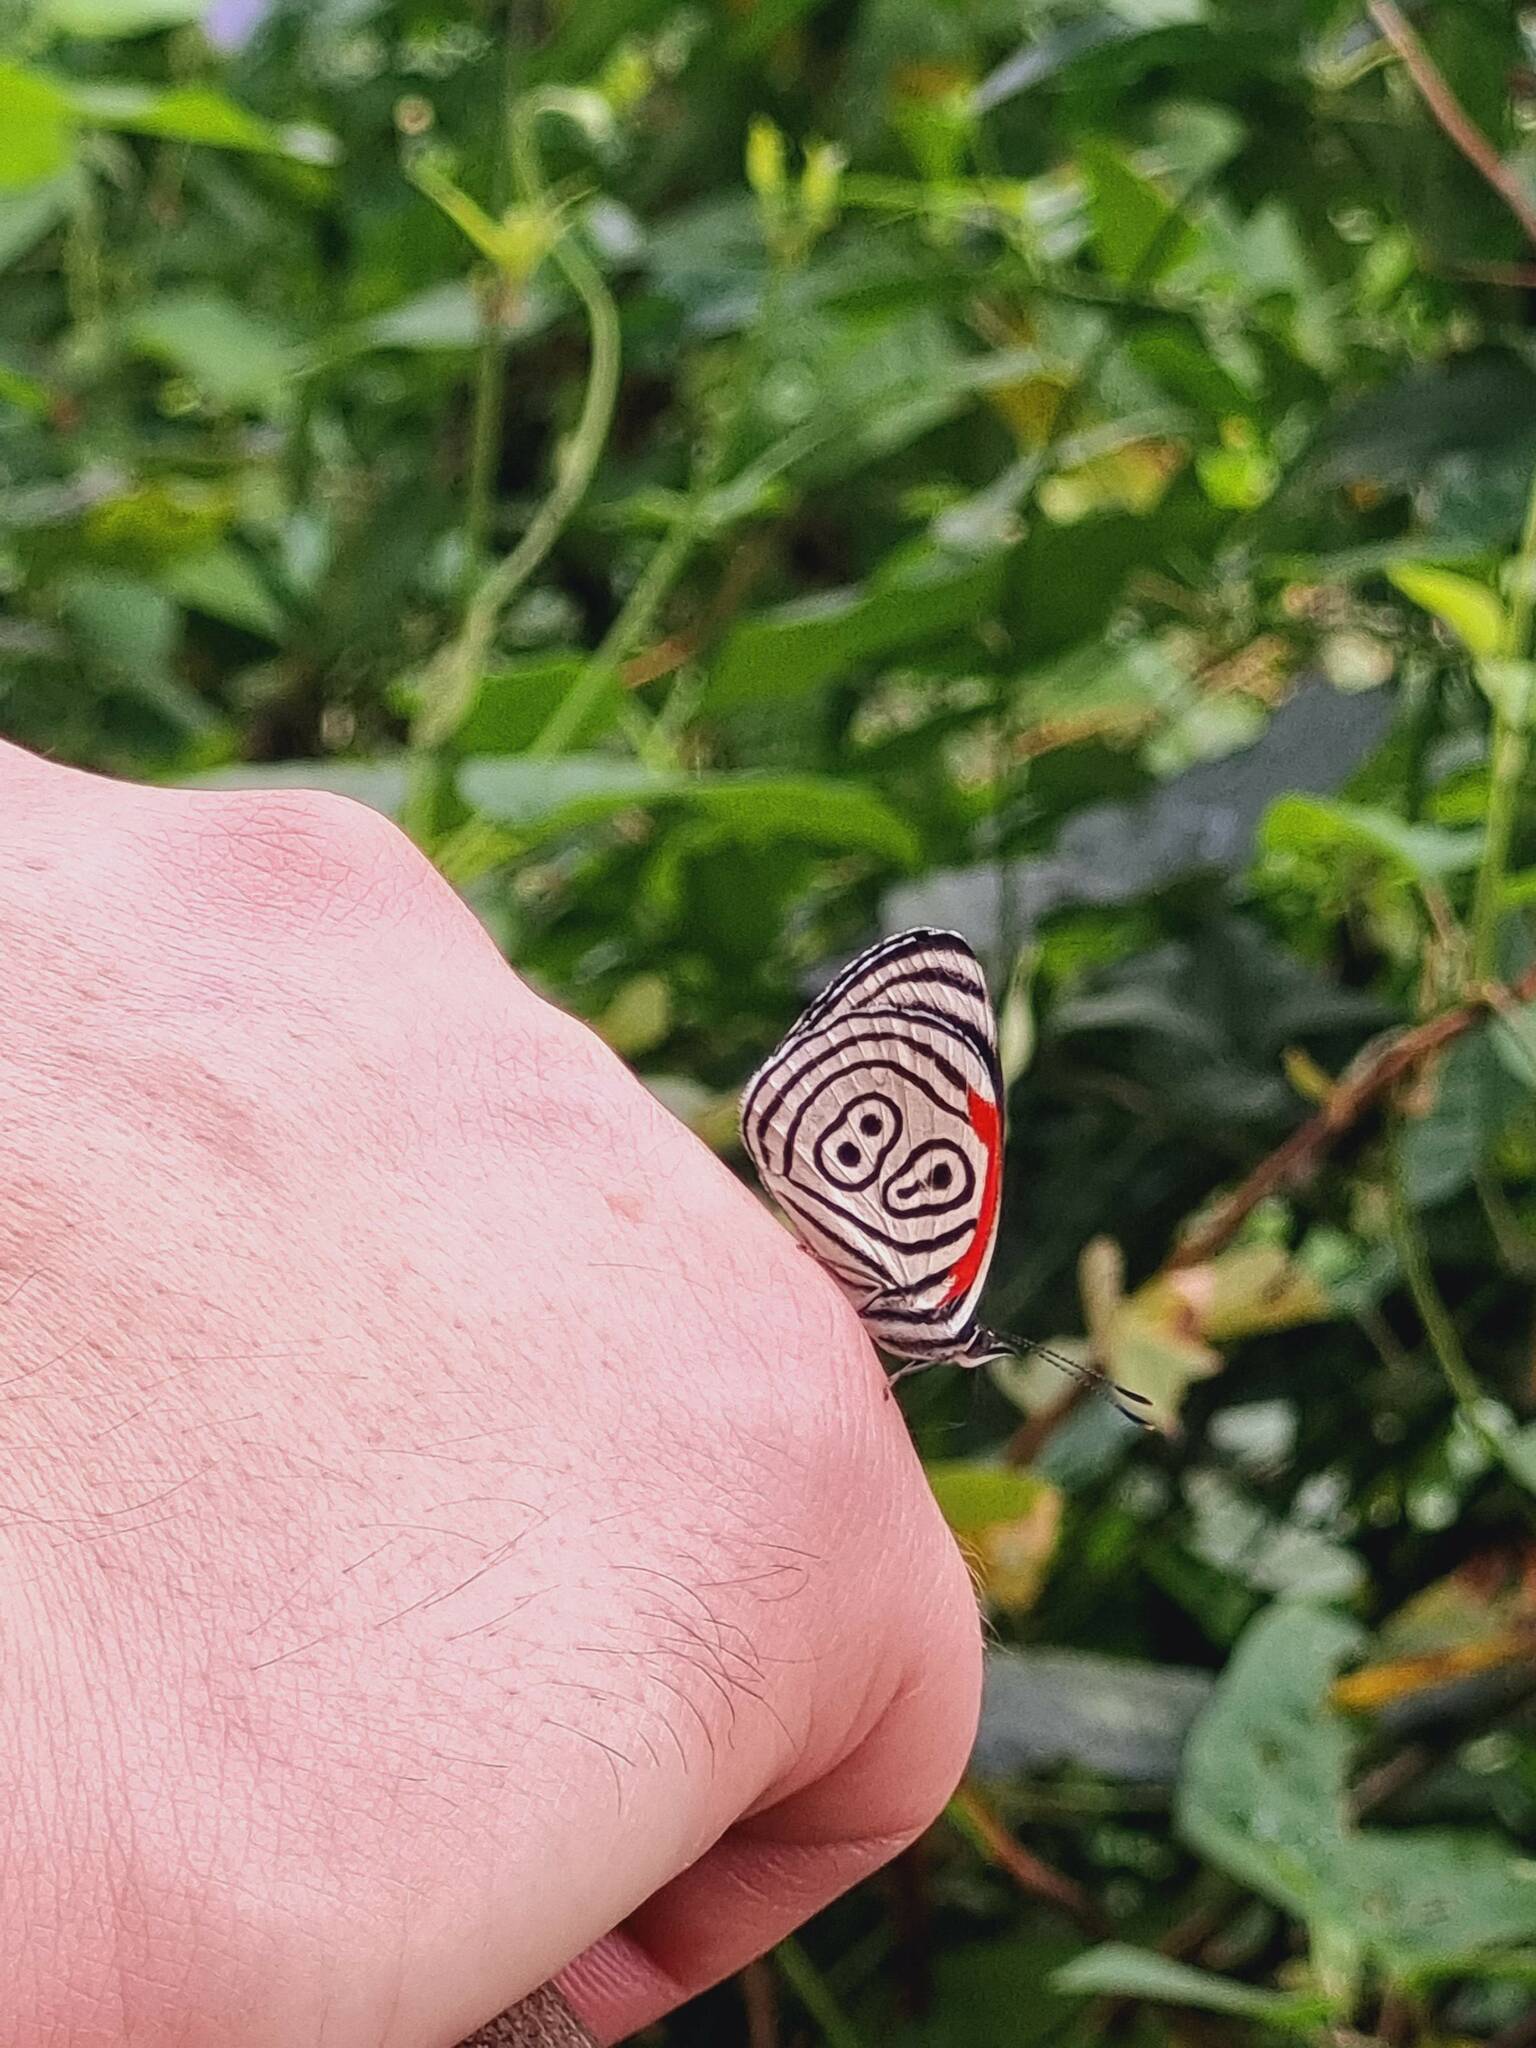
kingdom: Animalia
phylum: Arthropoda
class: Insecta
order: Lepidoptera
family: Nymphalidae
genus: Diaethria
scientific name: Diaethria clymena
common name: Widespread eighty-eight
